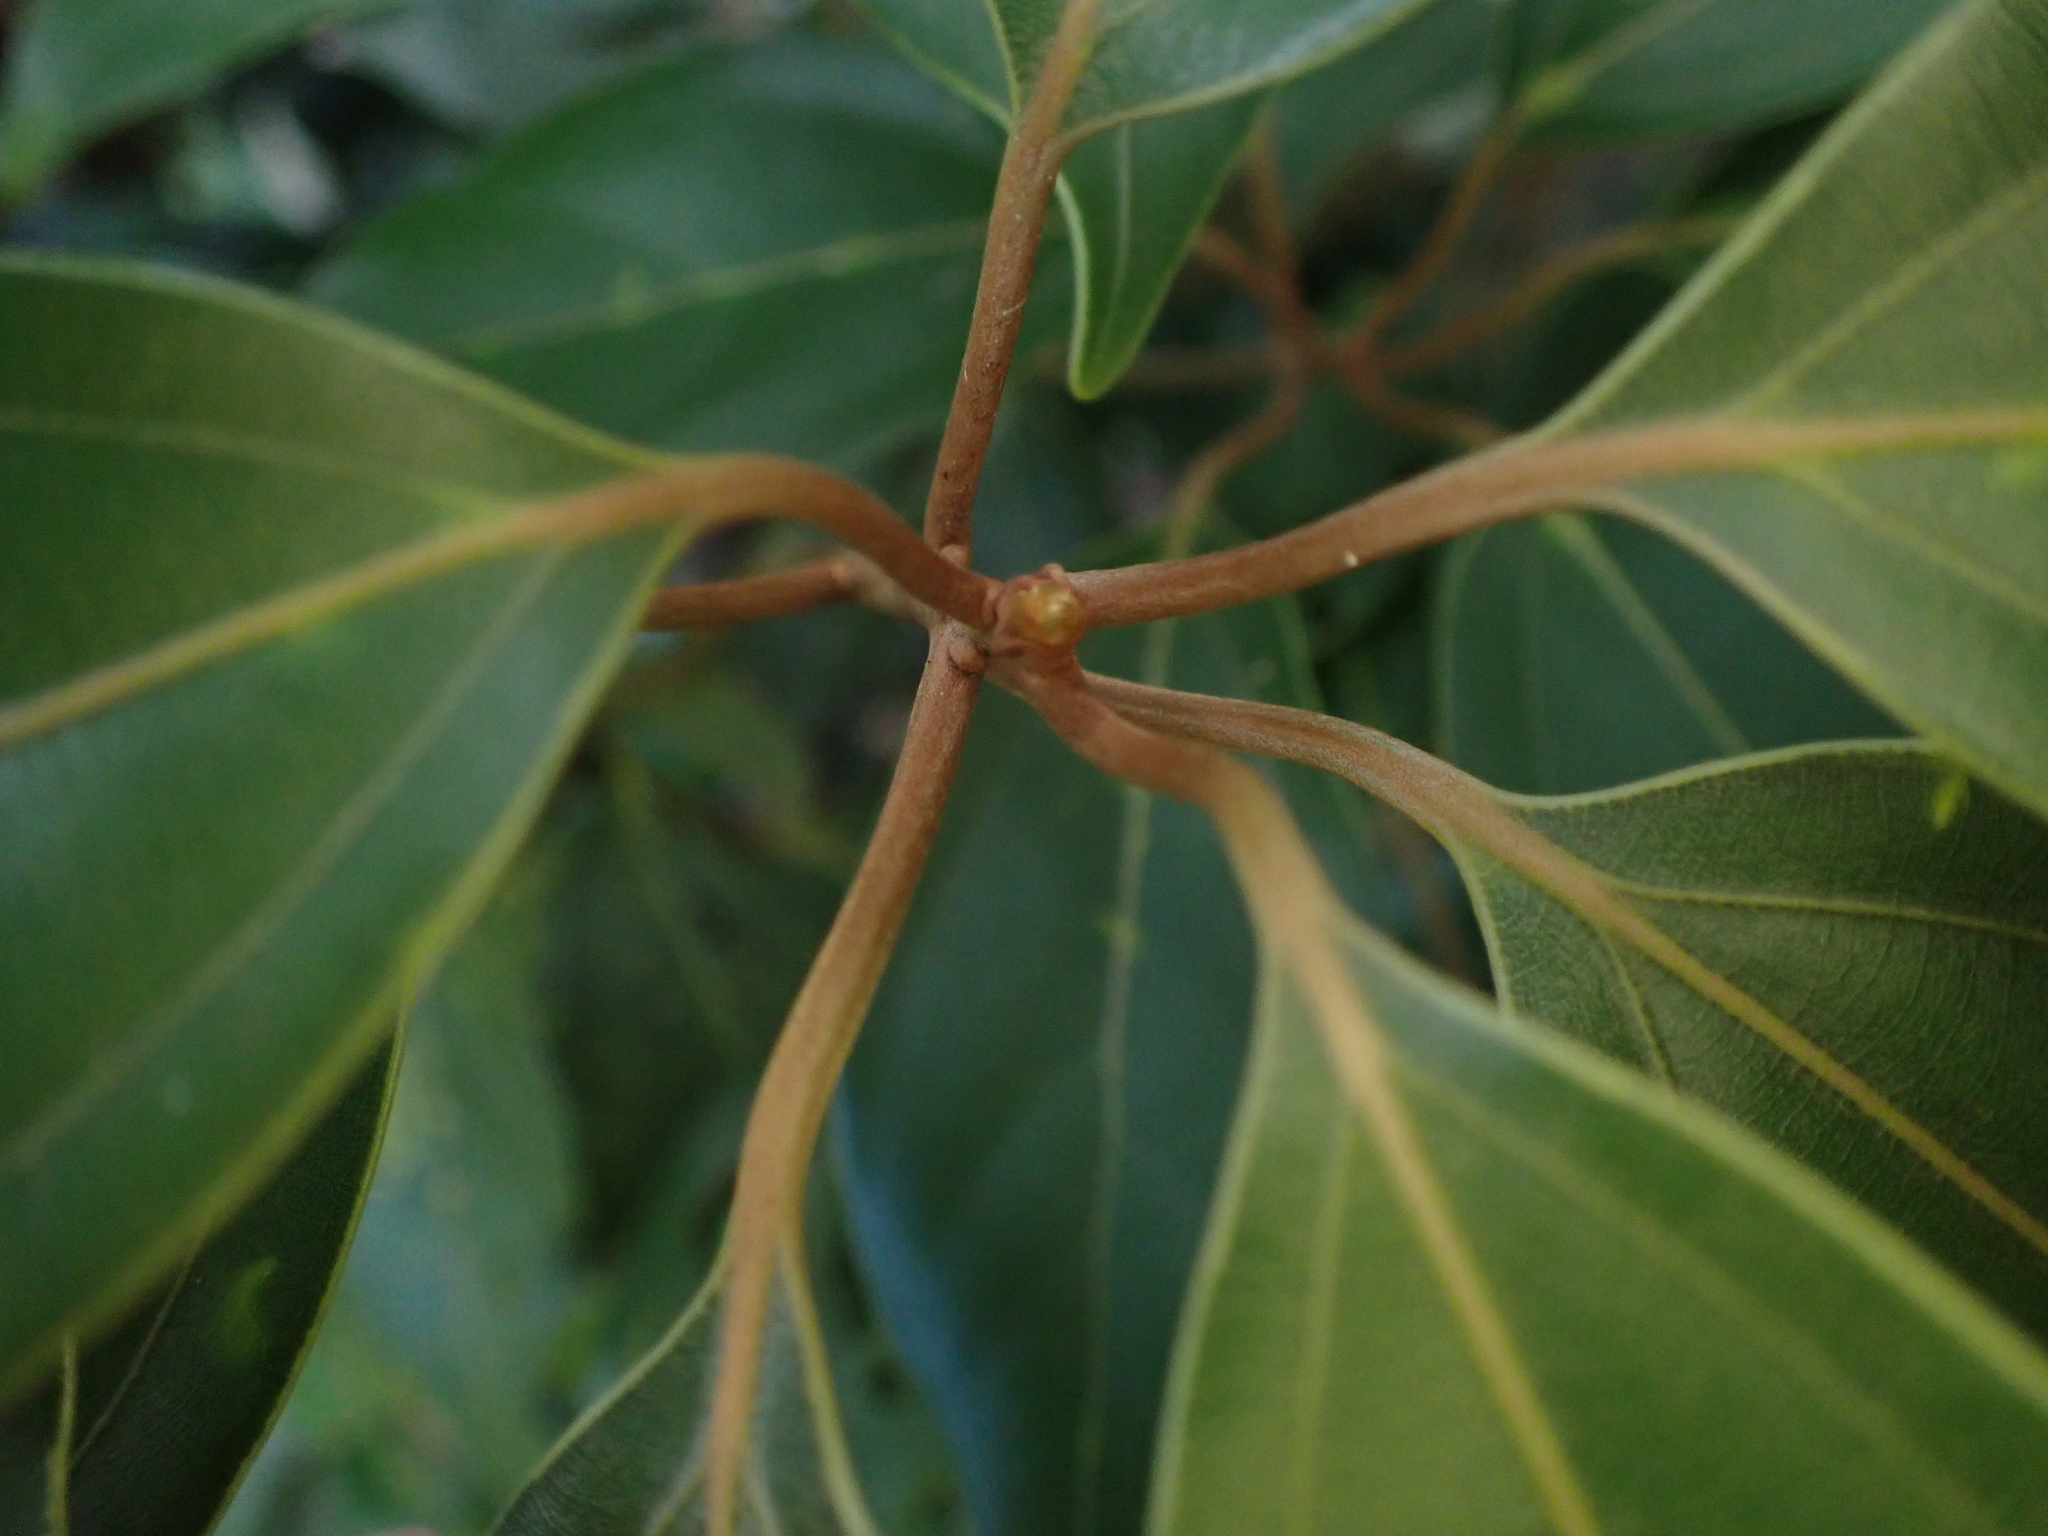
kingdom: Plantae
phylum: Tracheophyta
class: Magnoliopsida
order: Laurales
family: Lauraceae
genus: Neolitsea
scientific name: Neolitsea aurata
